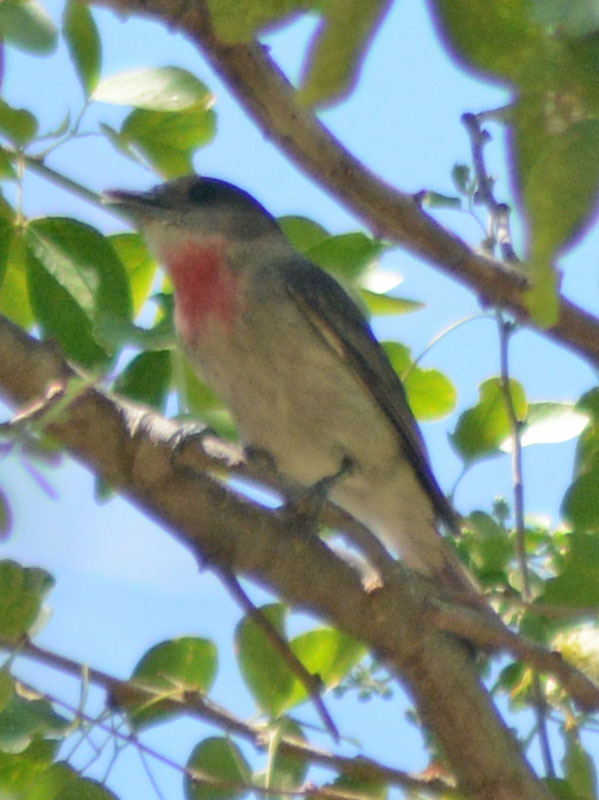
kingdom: Animalia
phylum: Chordata
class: Aves
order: Passeriformes
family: Cotingidae
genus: Pachyramphus
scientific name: Pachyramphus aglaiae
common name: Rose-throated becard
